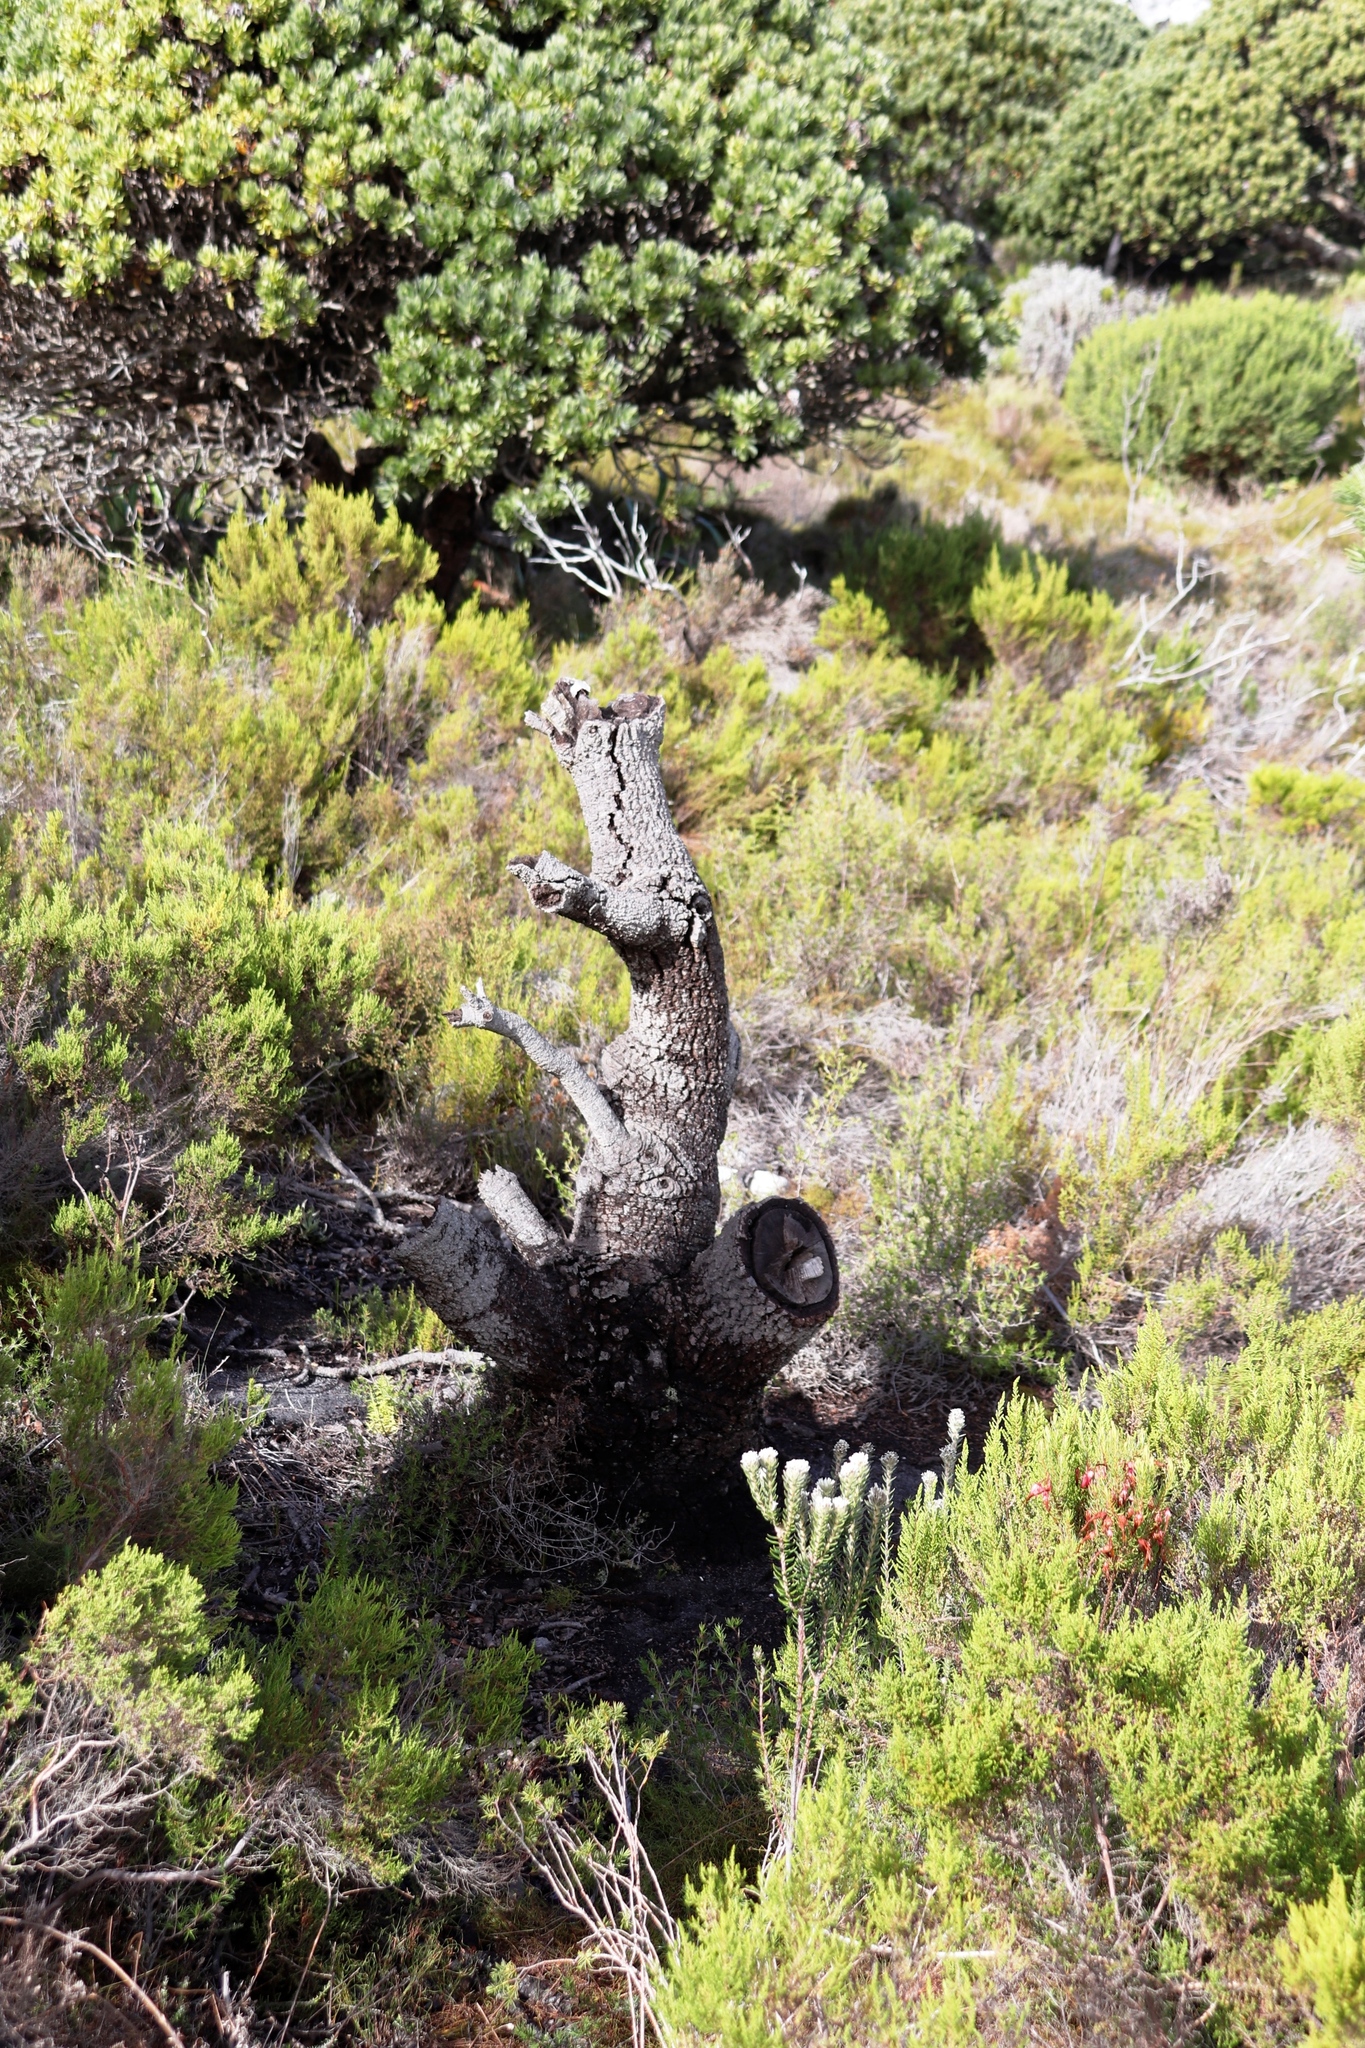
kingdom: Plantae
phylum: Tracheophyta
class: Magnoliopsida
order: Proteales
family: Proteaceae
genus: Mimetes
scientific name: Mimetes fimbriifolius
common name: Fringed bottlebrush
